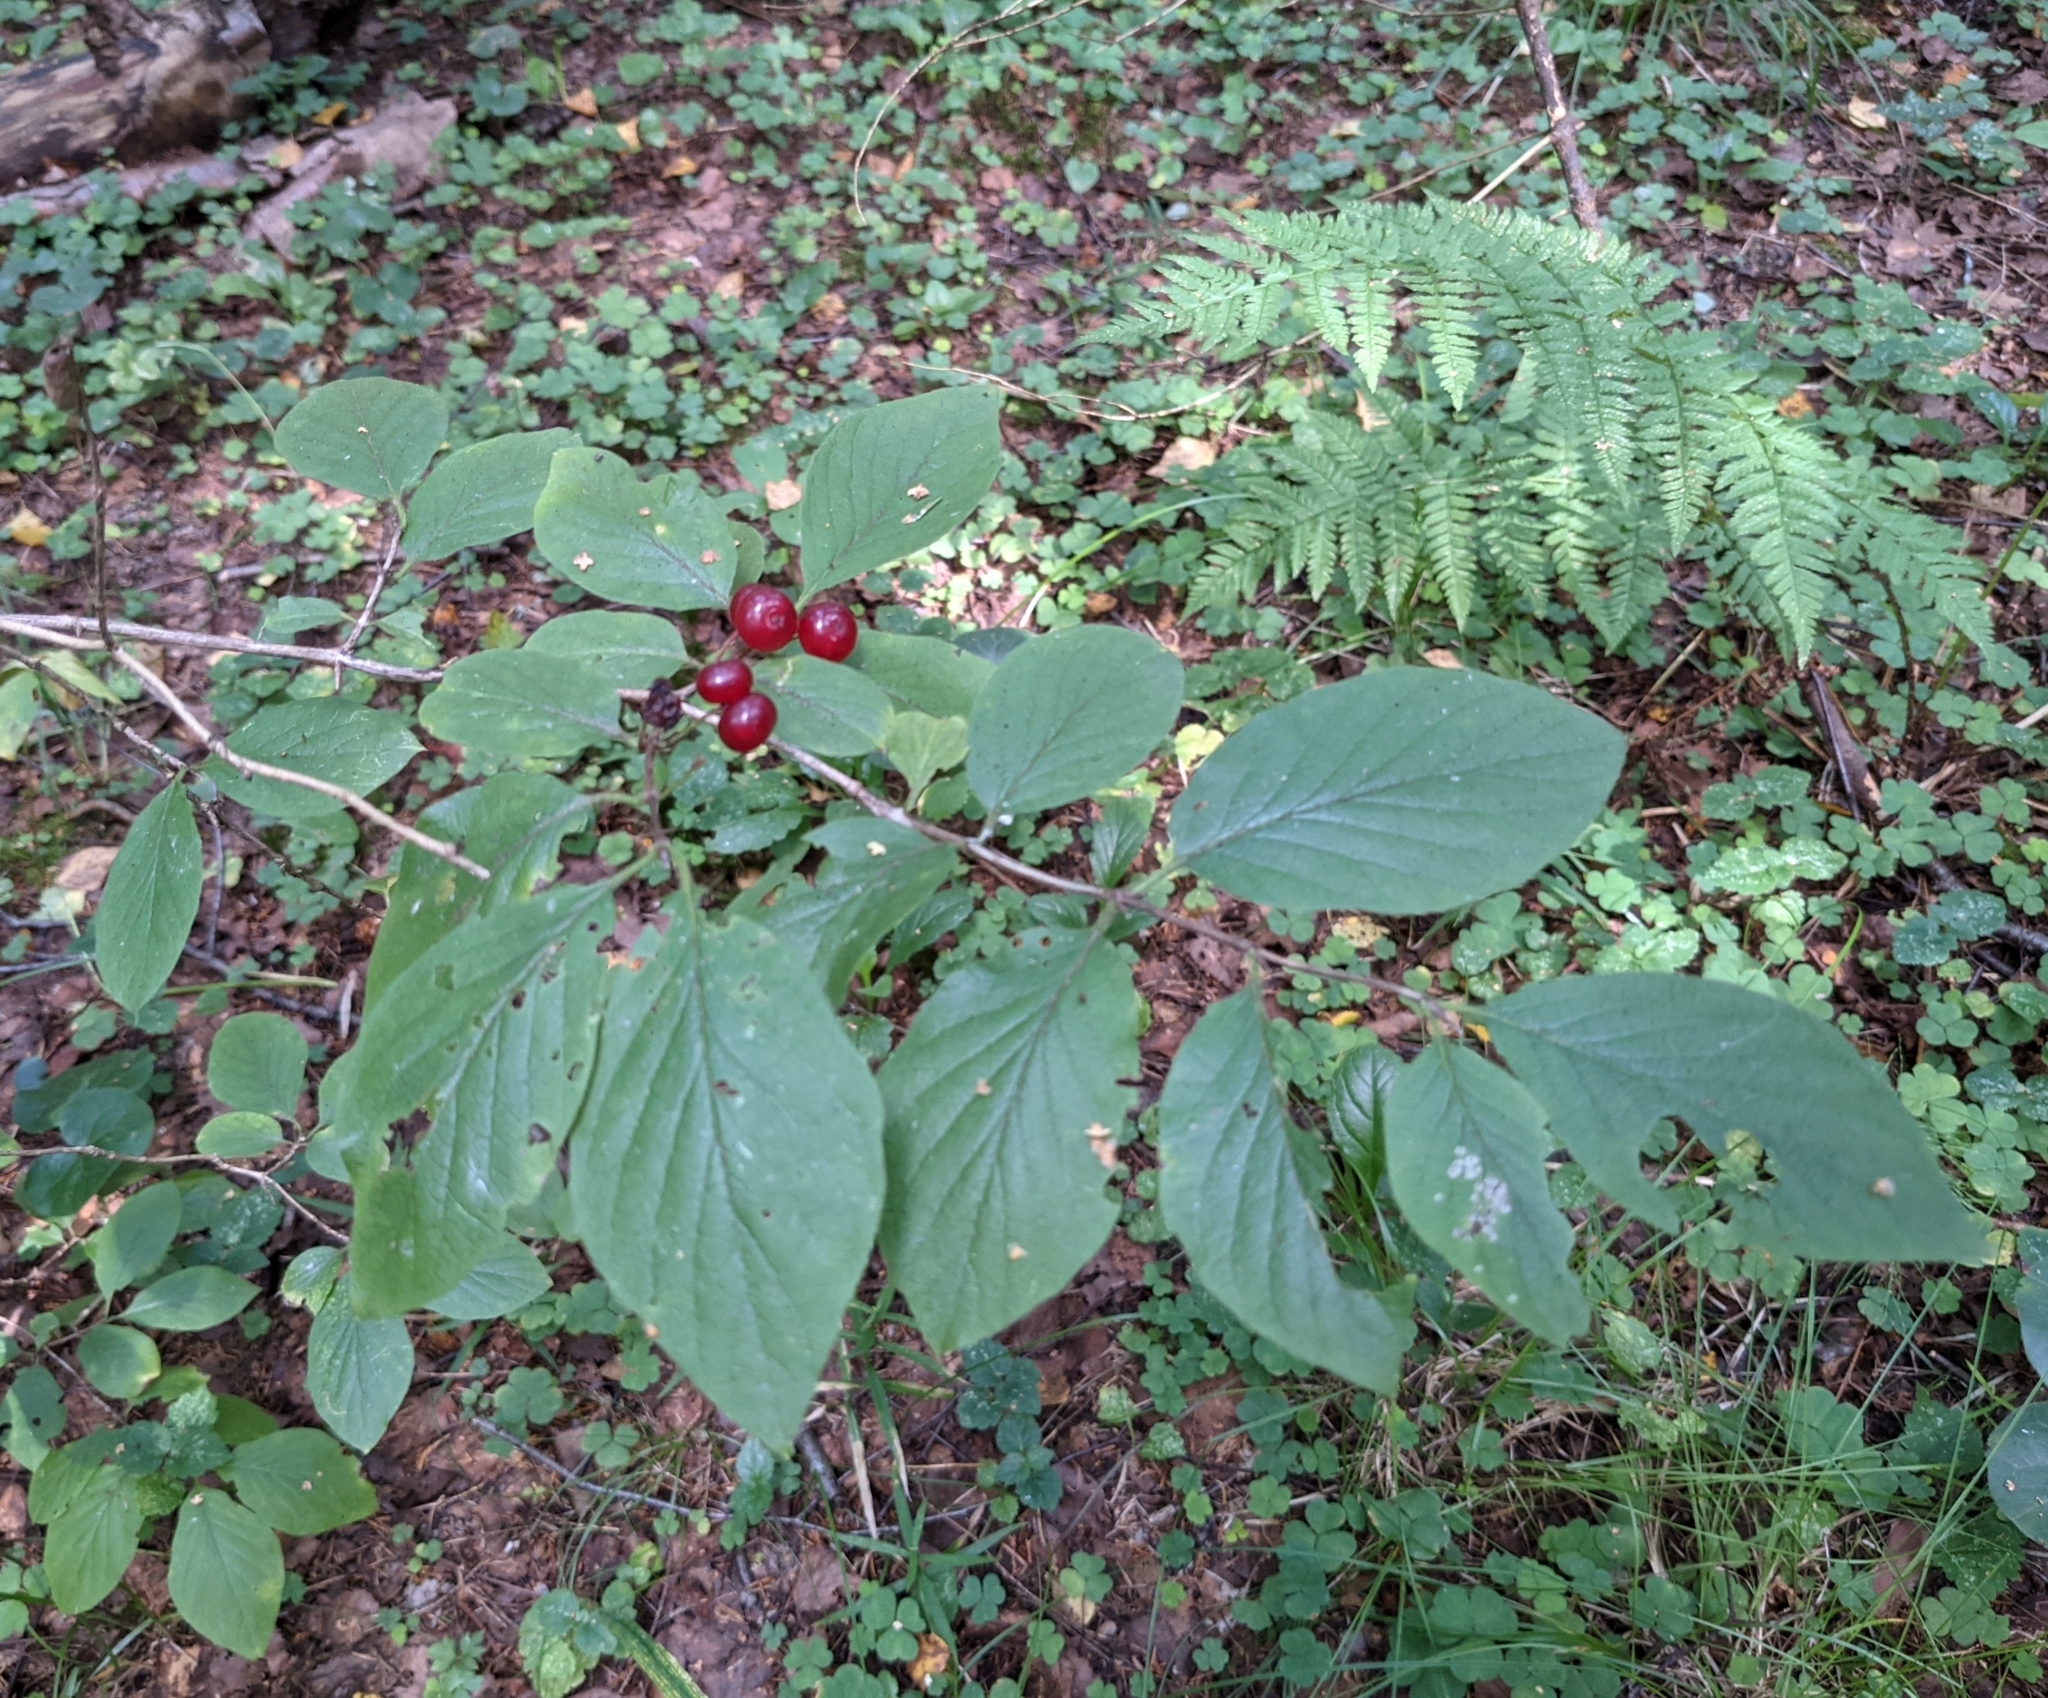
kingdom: Plantae
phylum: Tracheophyta
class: Magnoliopsida
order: Dipsacales
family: Caprifoliaceae
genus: Lonicera
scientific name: Lonicera xylosteum
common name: Fly honeysuckle
